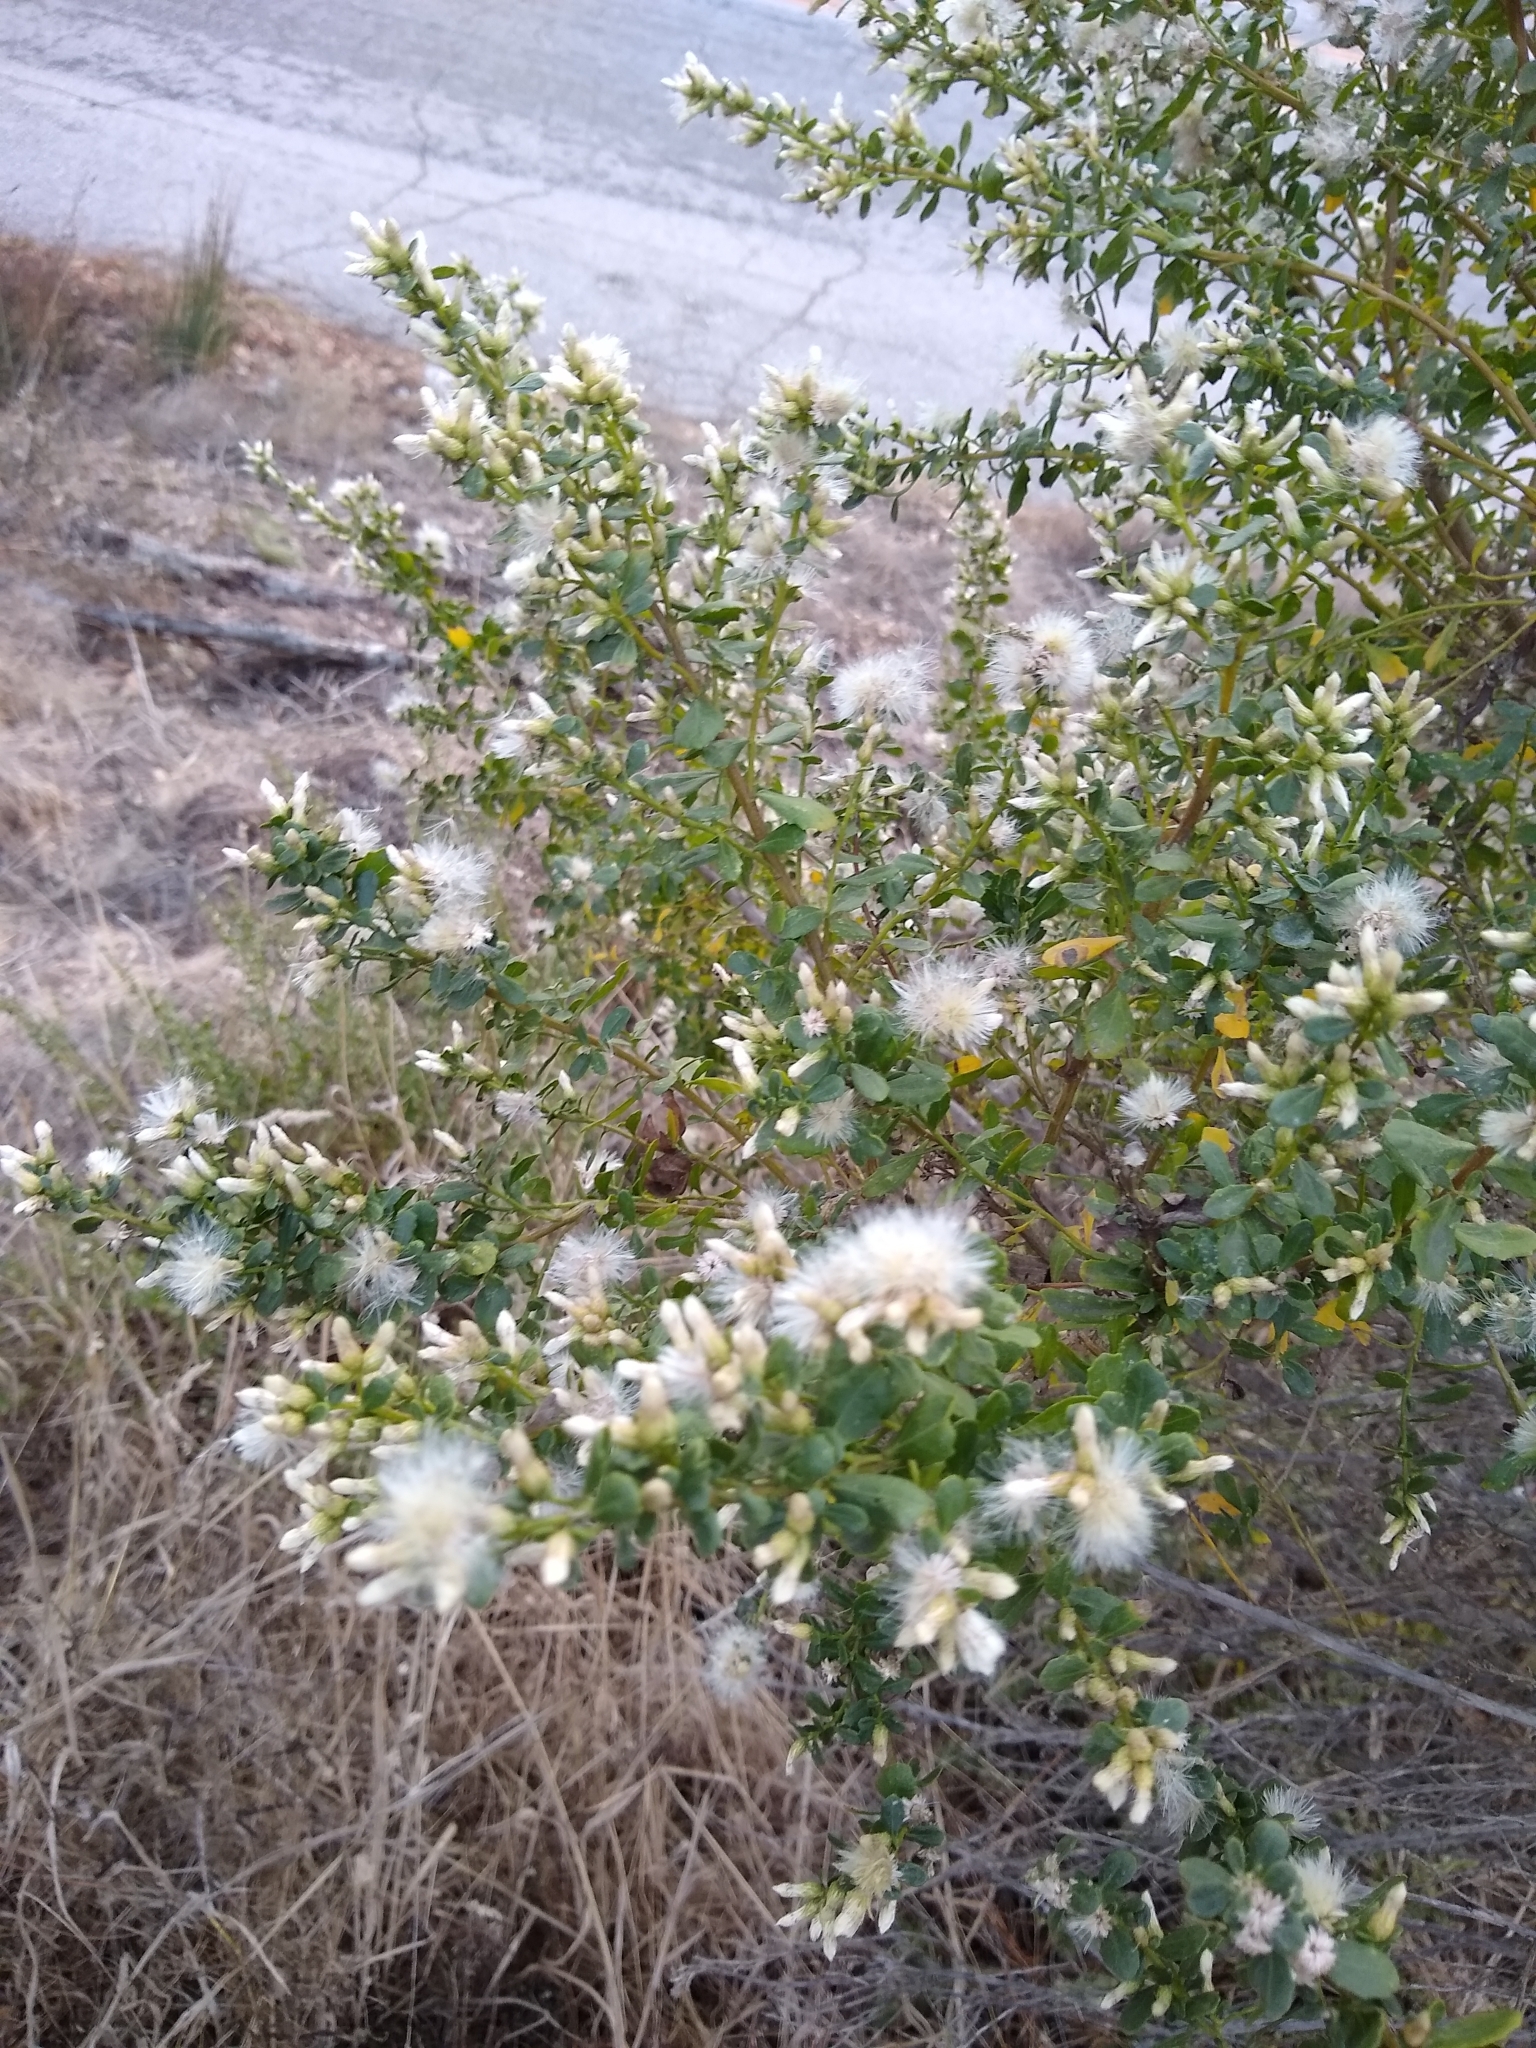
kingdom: Plantae
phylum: Tracheophyta
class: Magnoliopsida
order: Asterales
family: Asteraceae
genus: Baccharis
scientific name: Baccharis pilularis
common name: Coyotebrush
